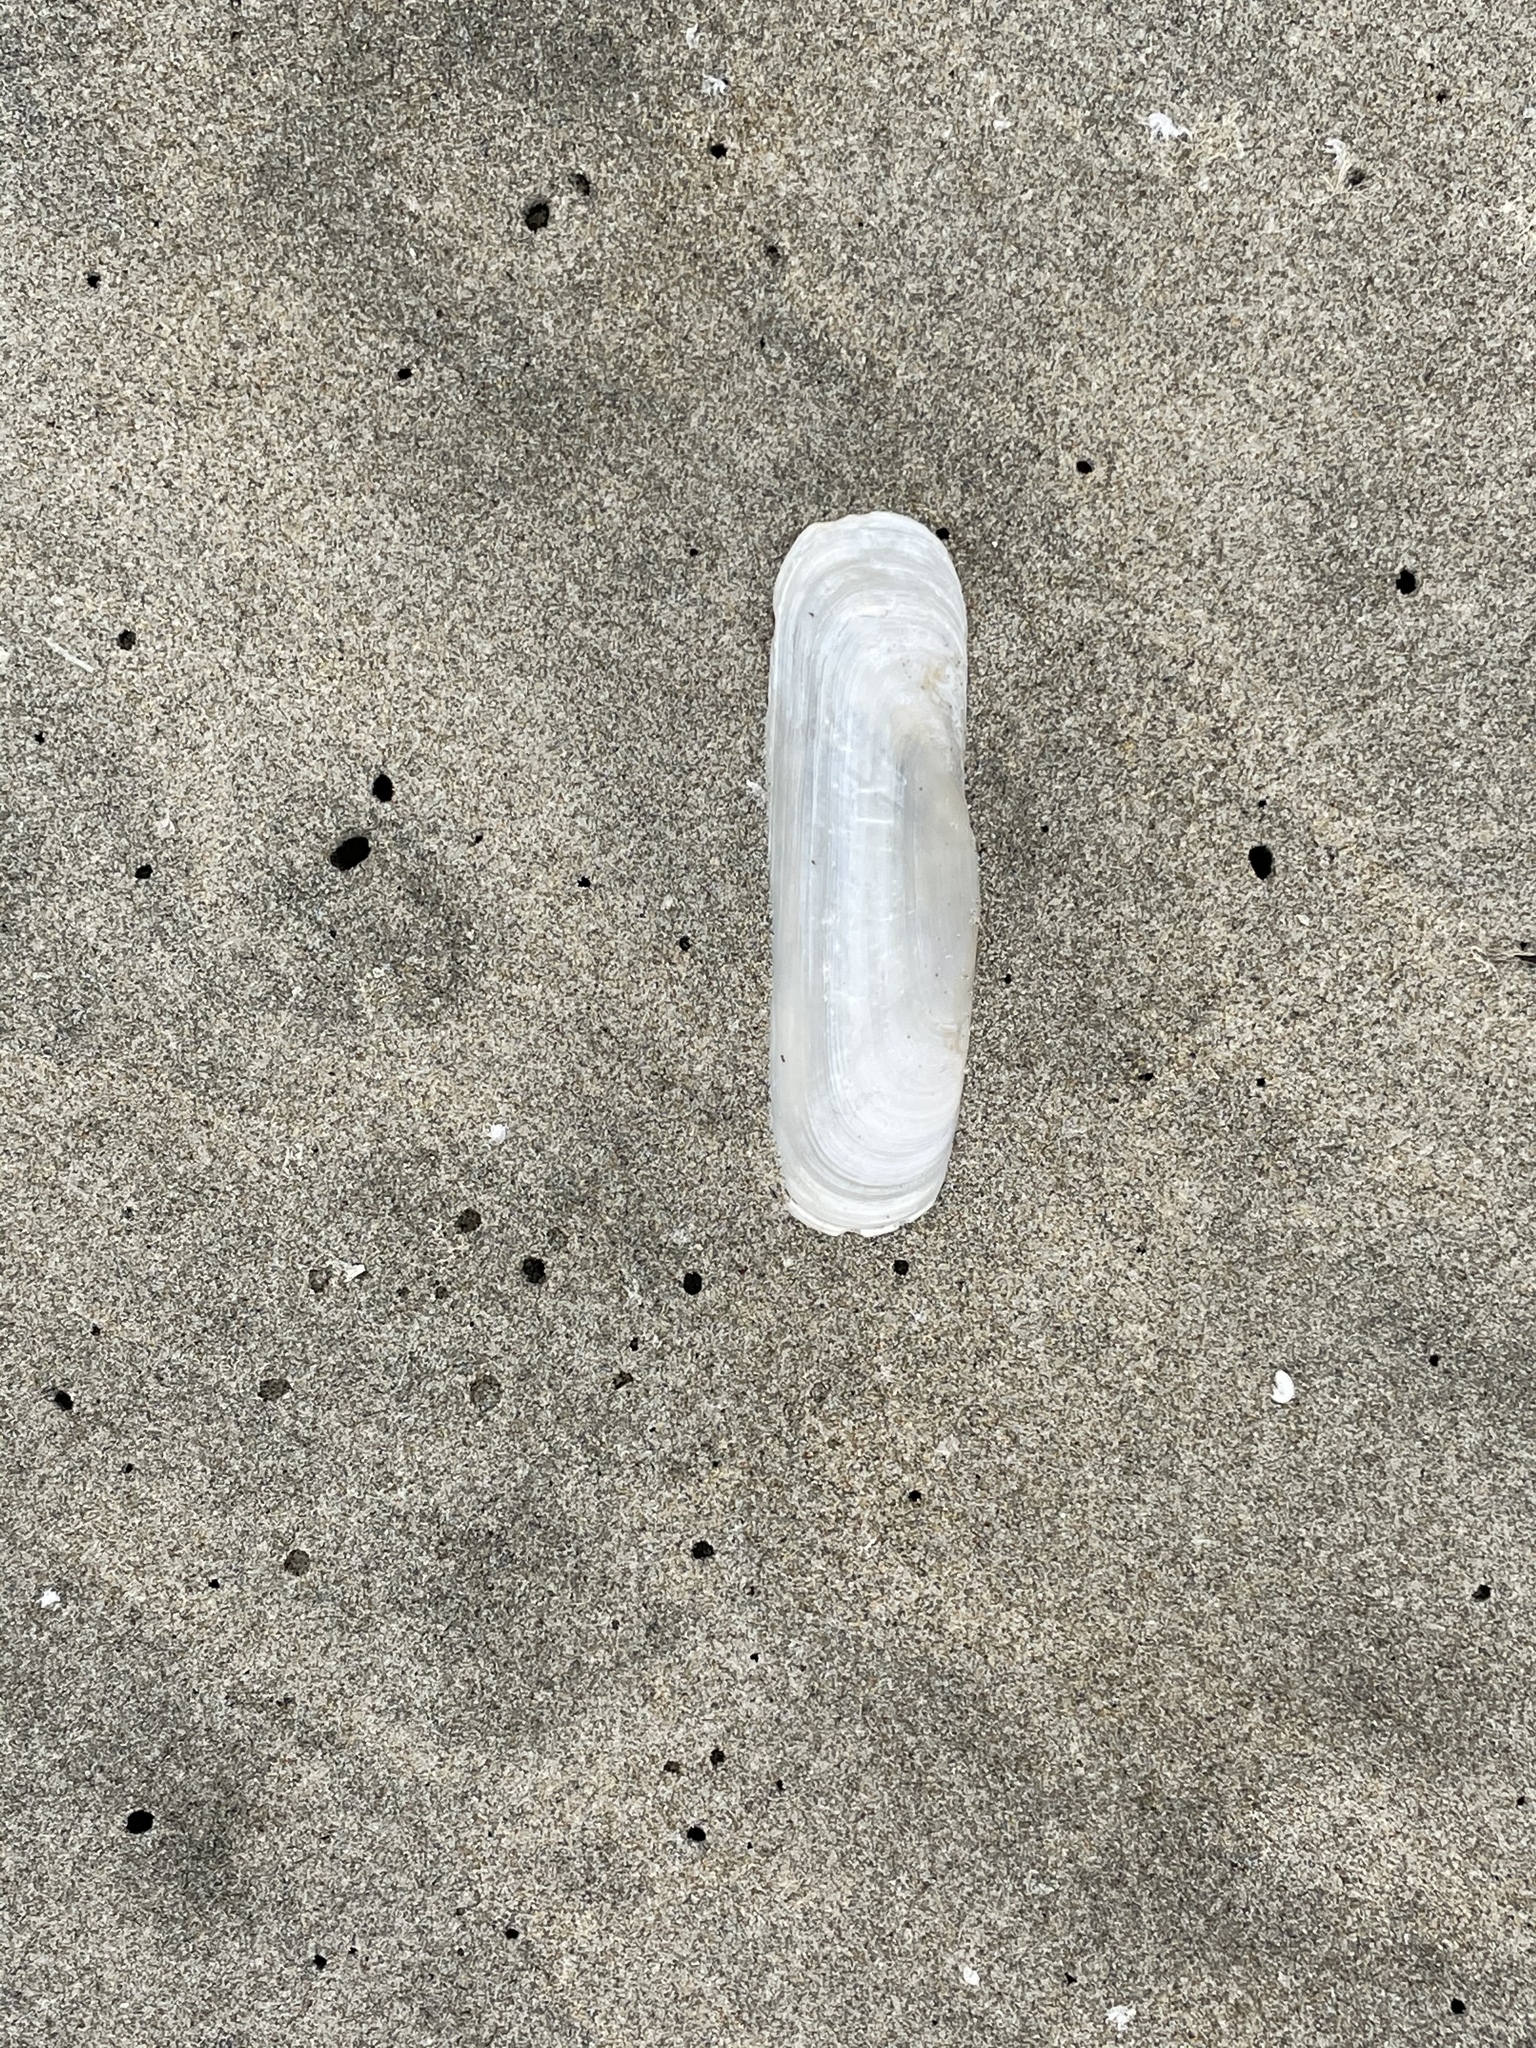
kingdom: Animalia
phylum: Mollusca
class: Bivalvia
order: Cardiida
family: Solecurtidae
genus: Tagelus
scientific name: Tagelus californianus
